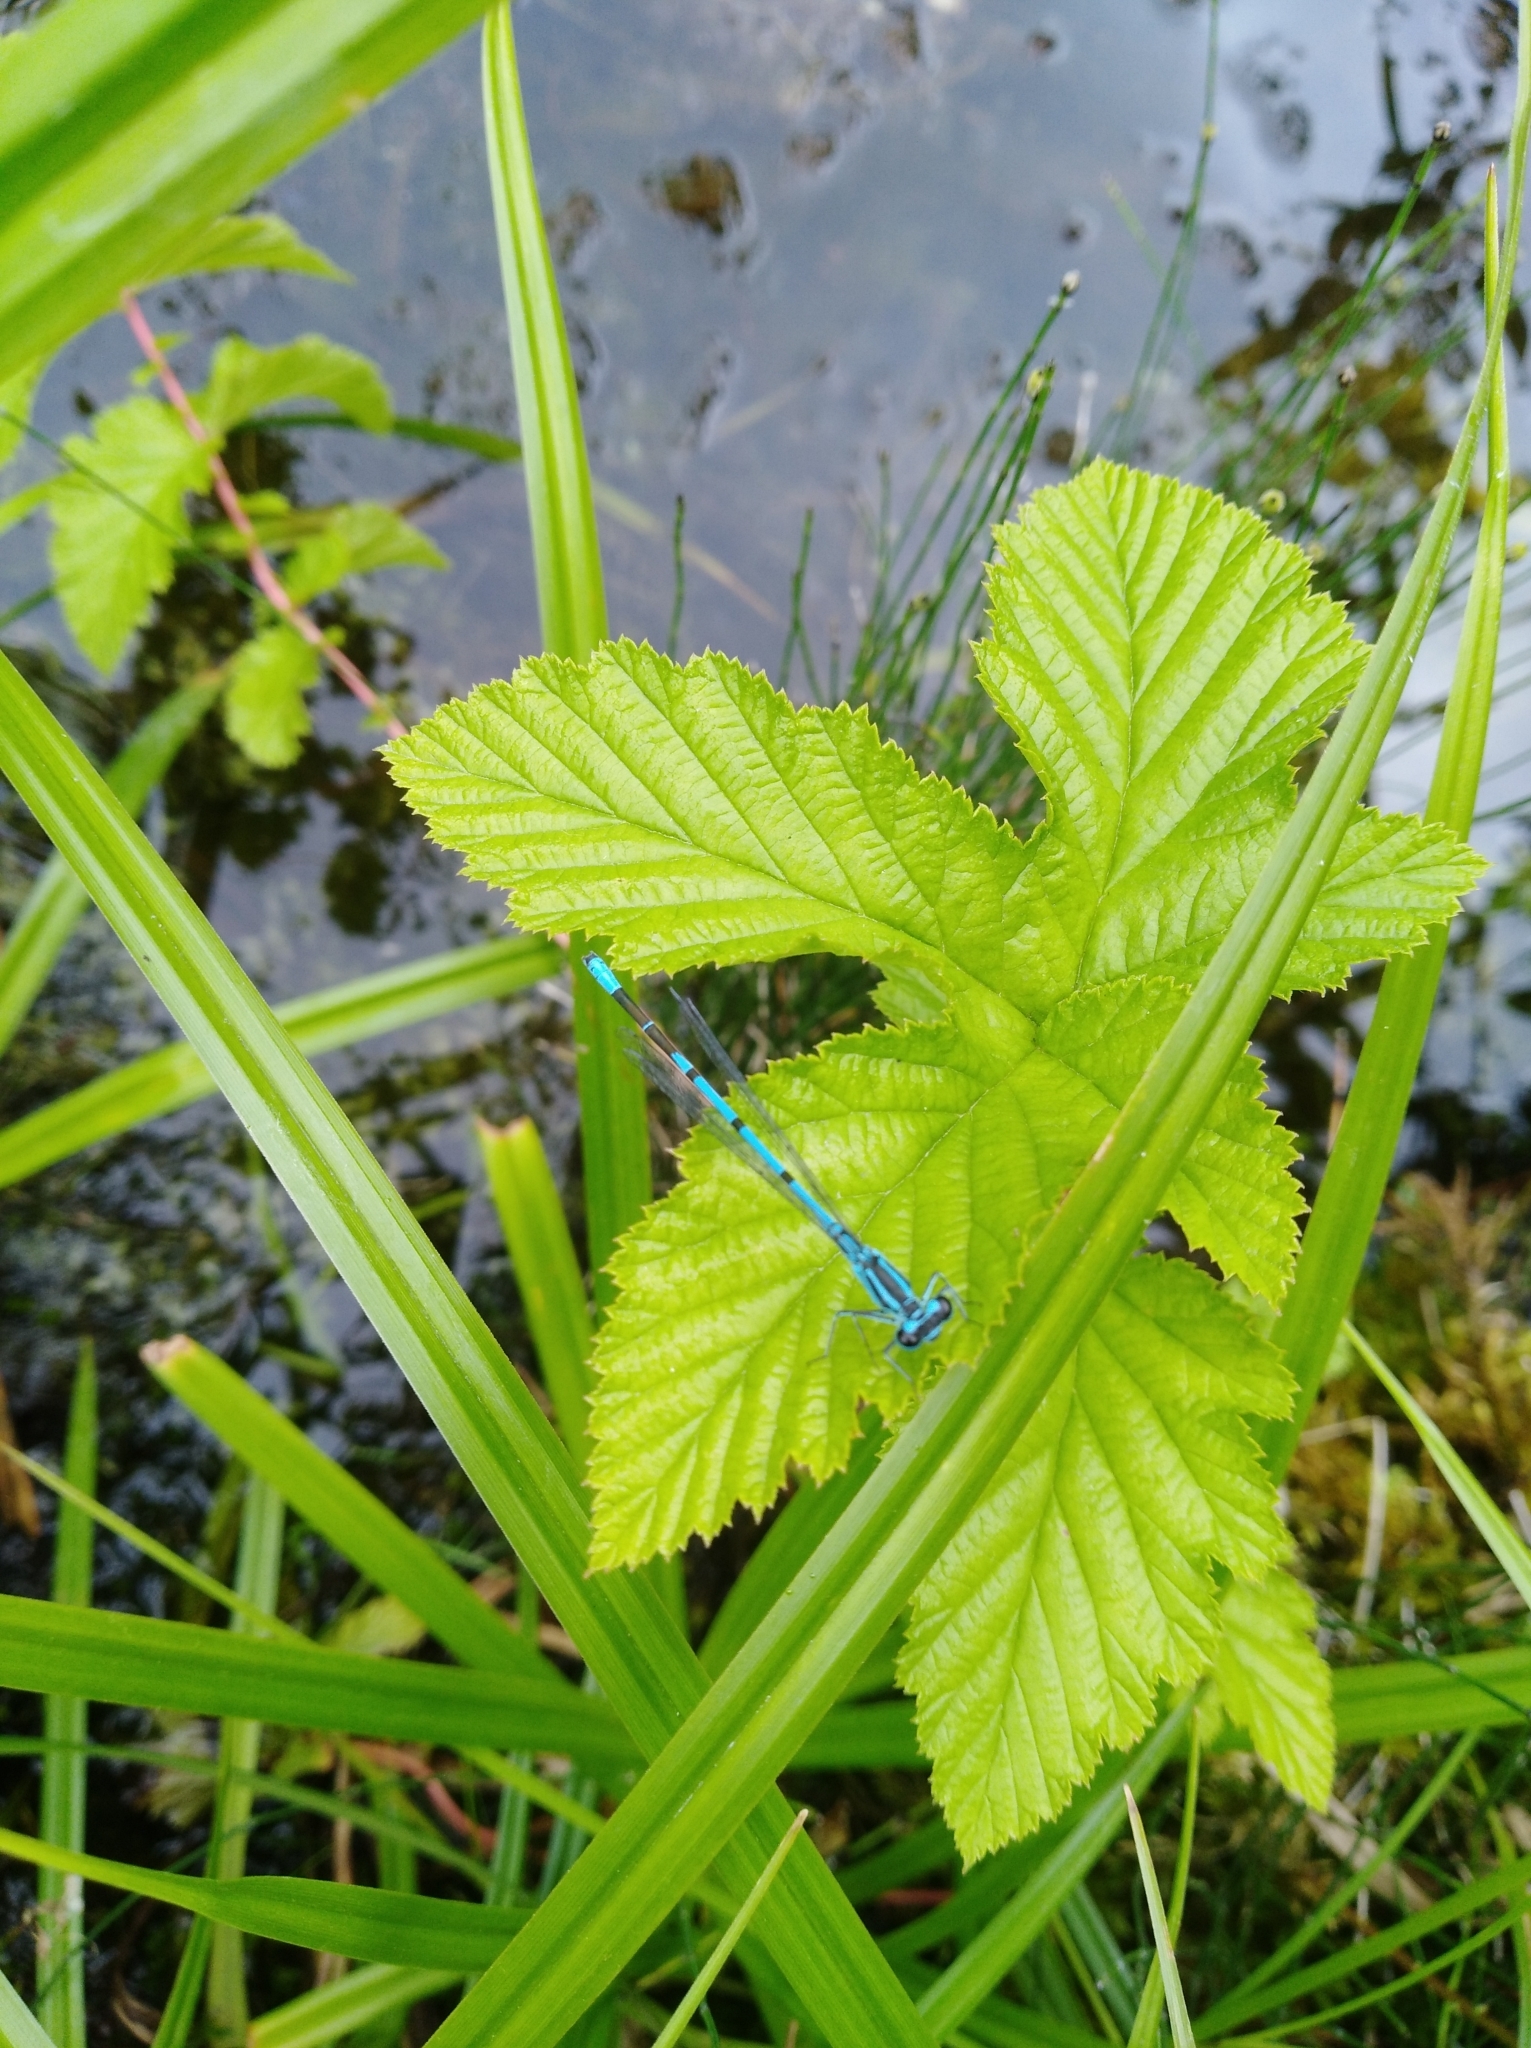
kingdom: Animalia
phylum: Arthropoda
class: Insecta
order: Odonata
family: Coenagrionidae
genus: Coenagrion
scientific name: Coenagrion puella
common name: Azure damselfly
